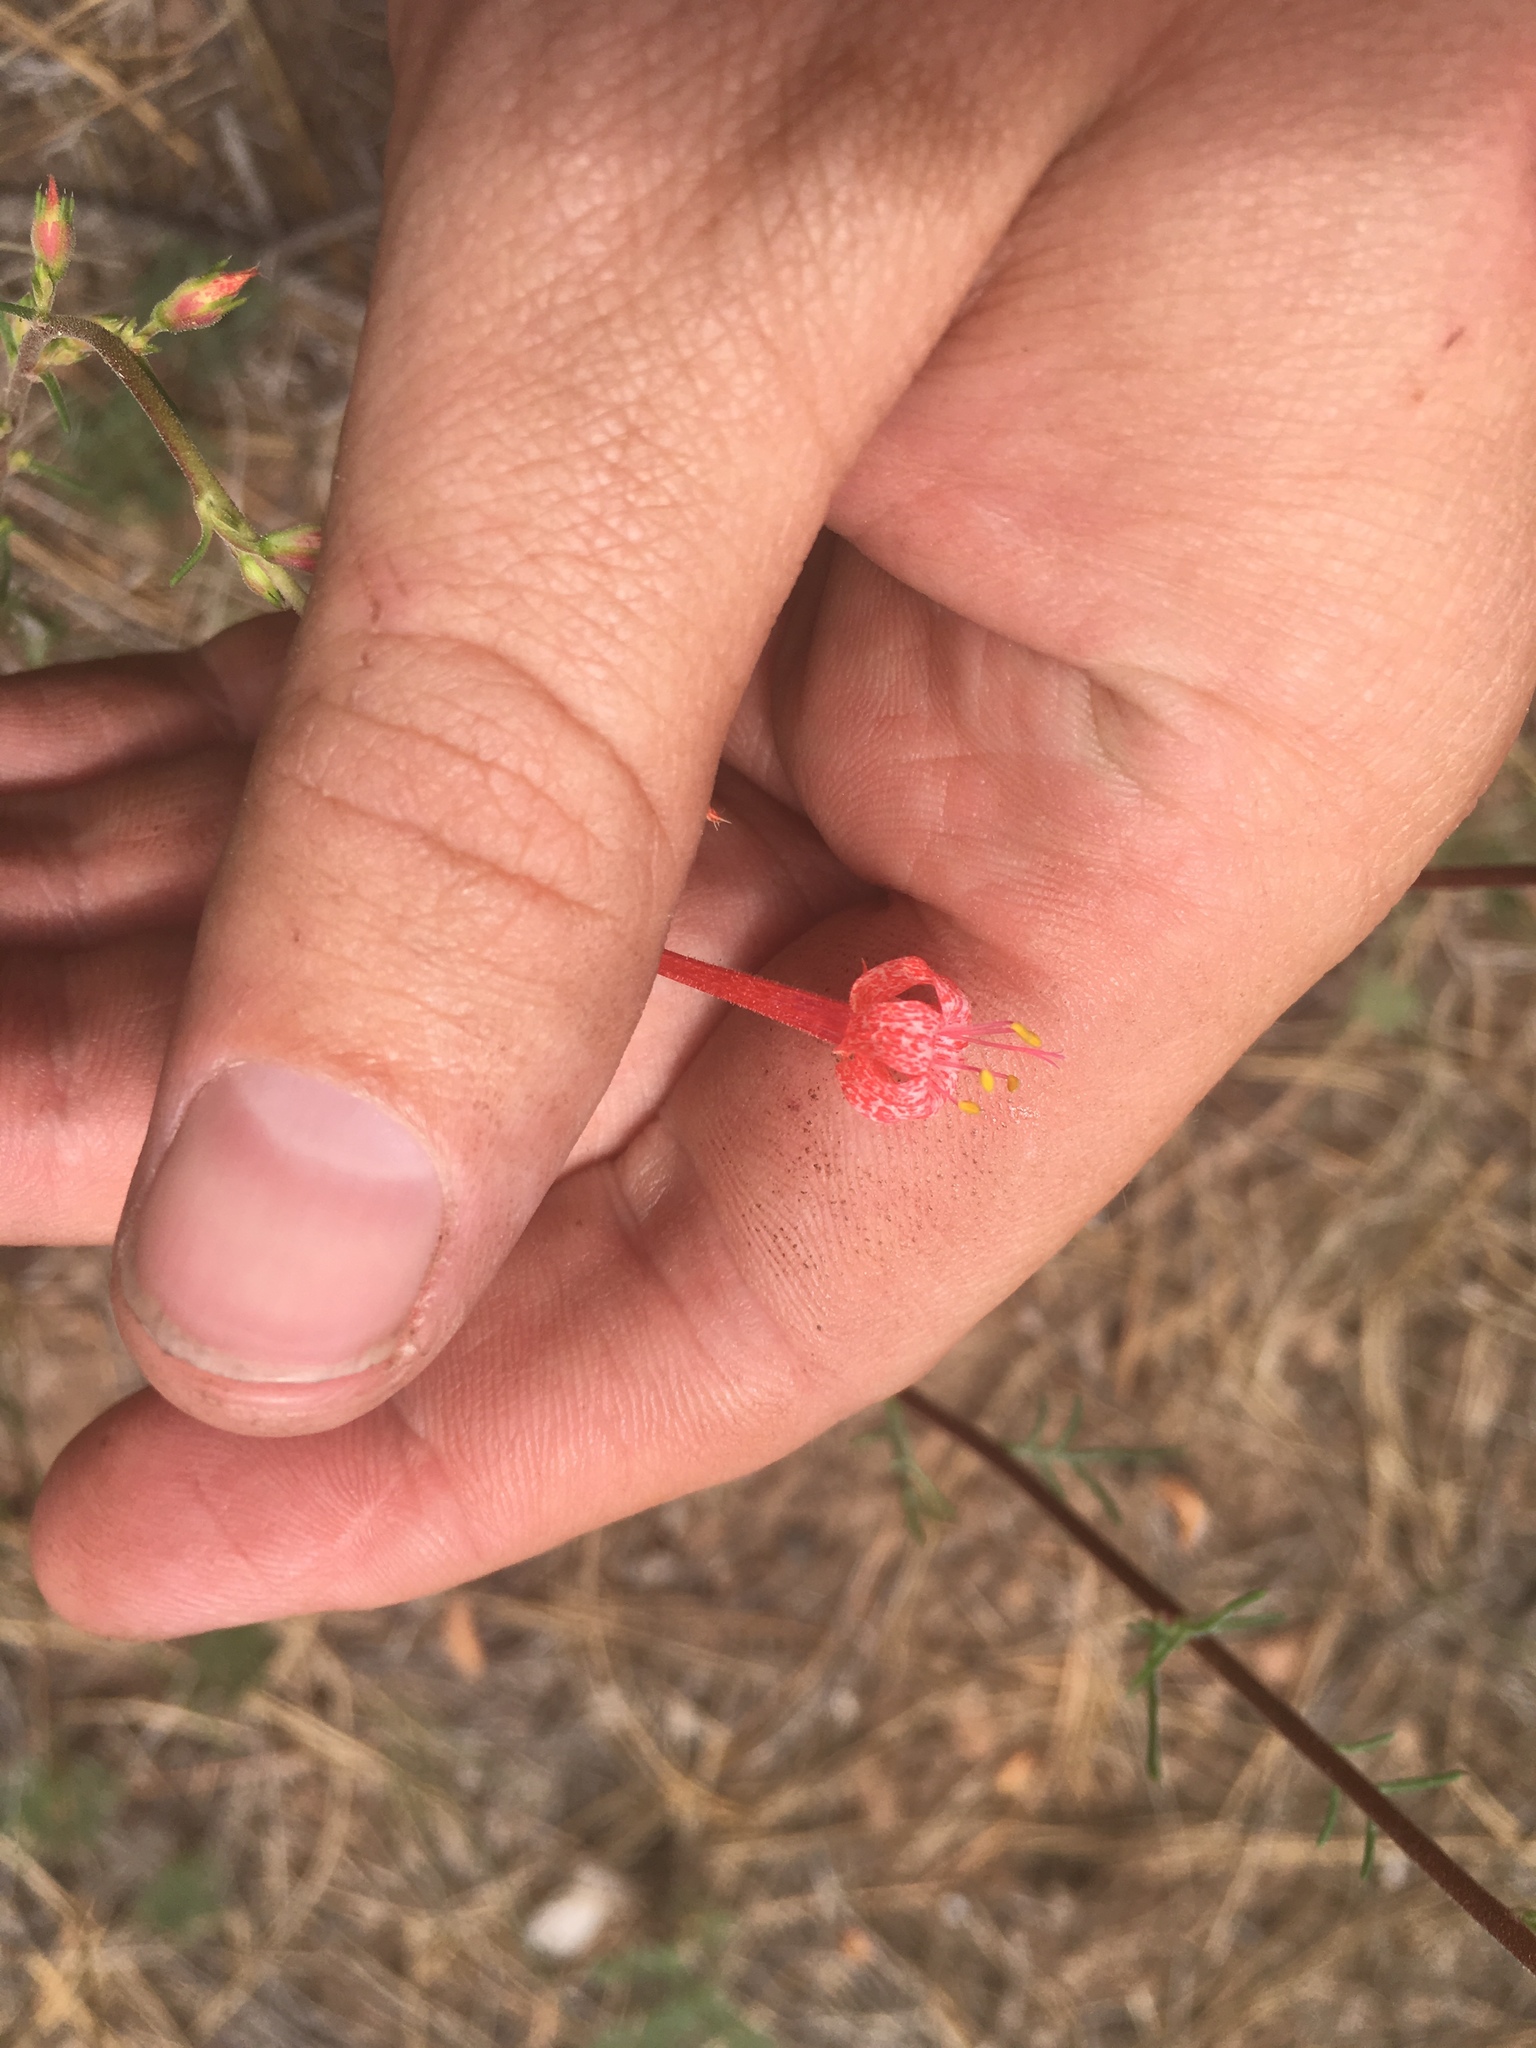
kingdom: Plantae
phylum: Tracheophyta
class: Magnoliopsida
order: Ericales
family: Polemoniaceae
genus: Ipomopsis
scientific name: Ipomopsis aggregata
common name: Scarlet gilia
